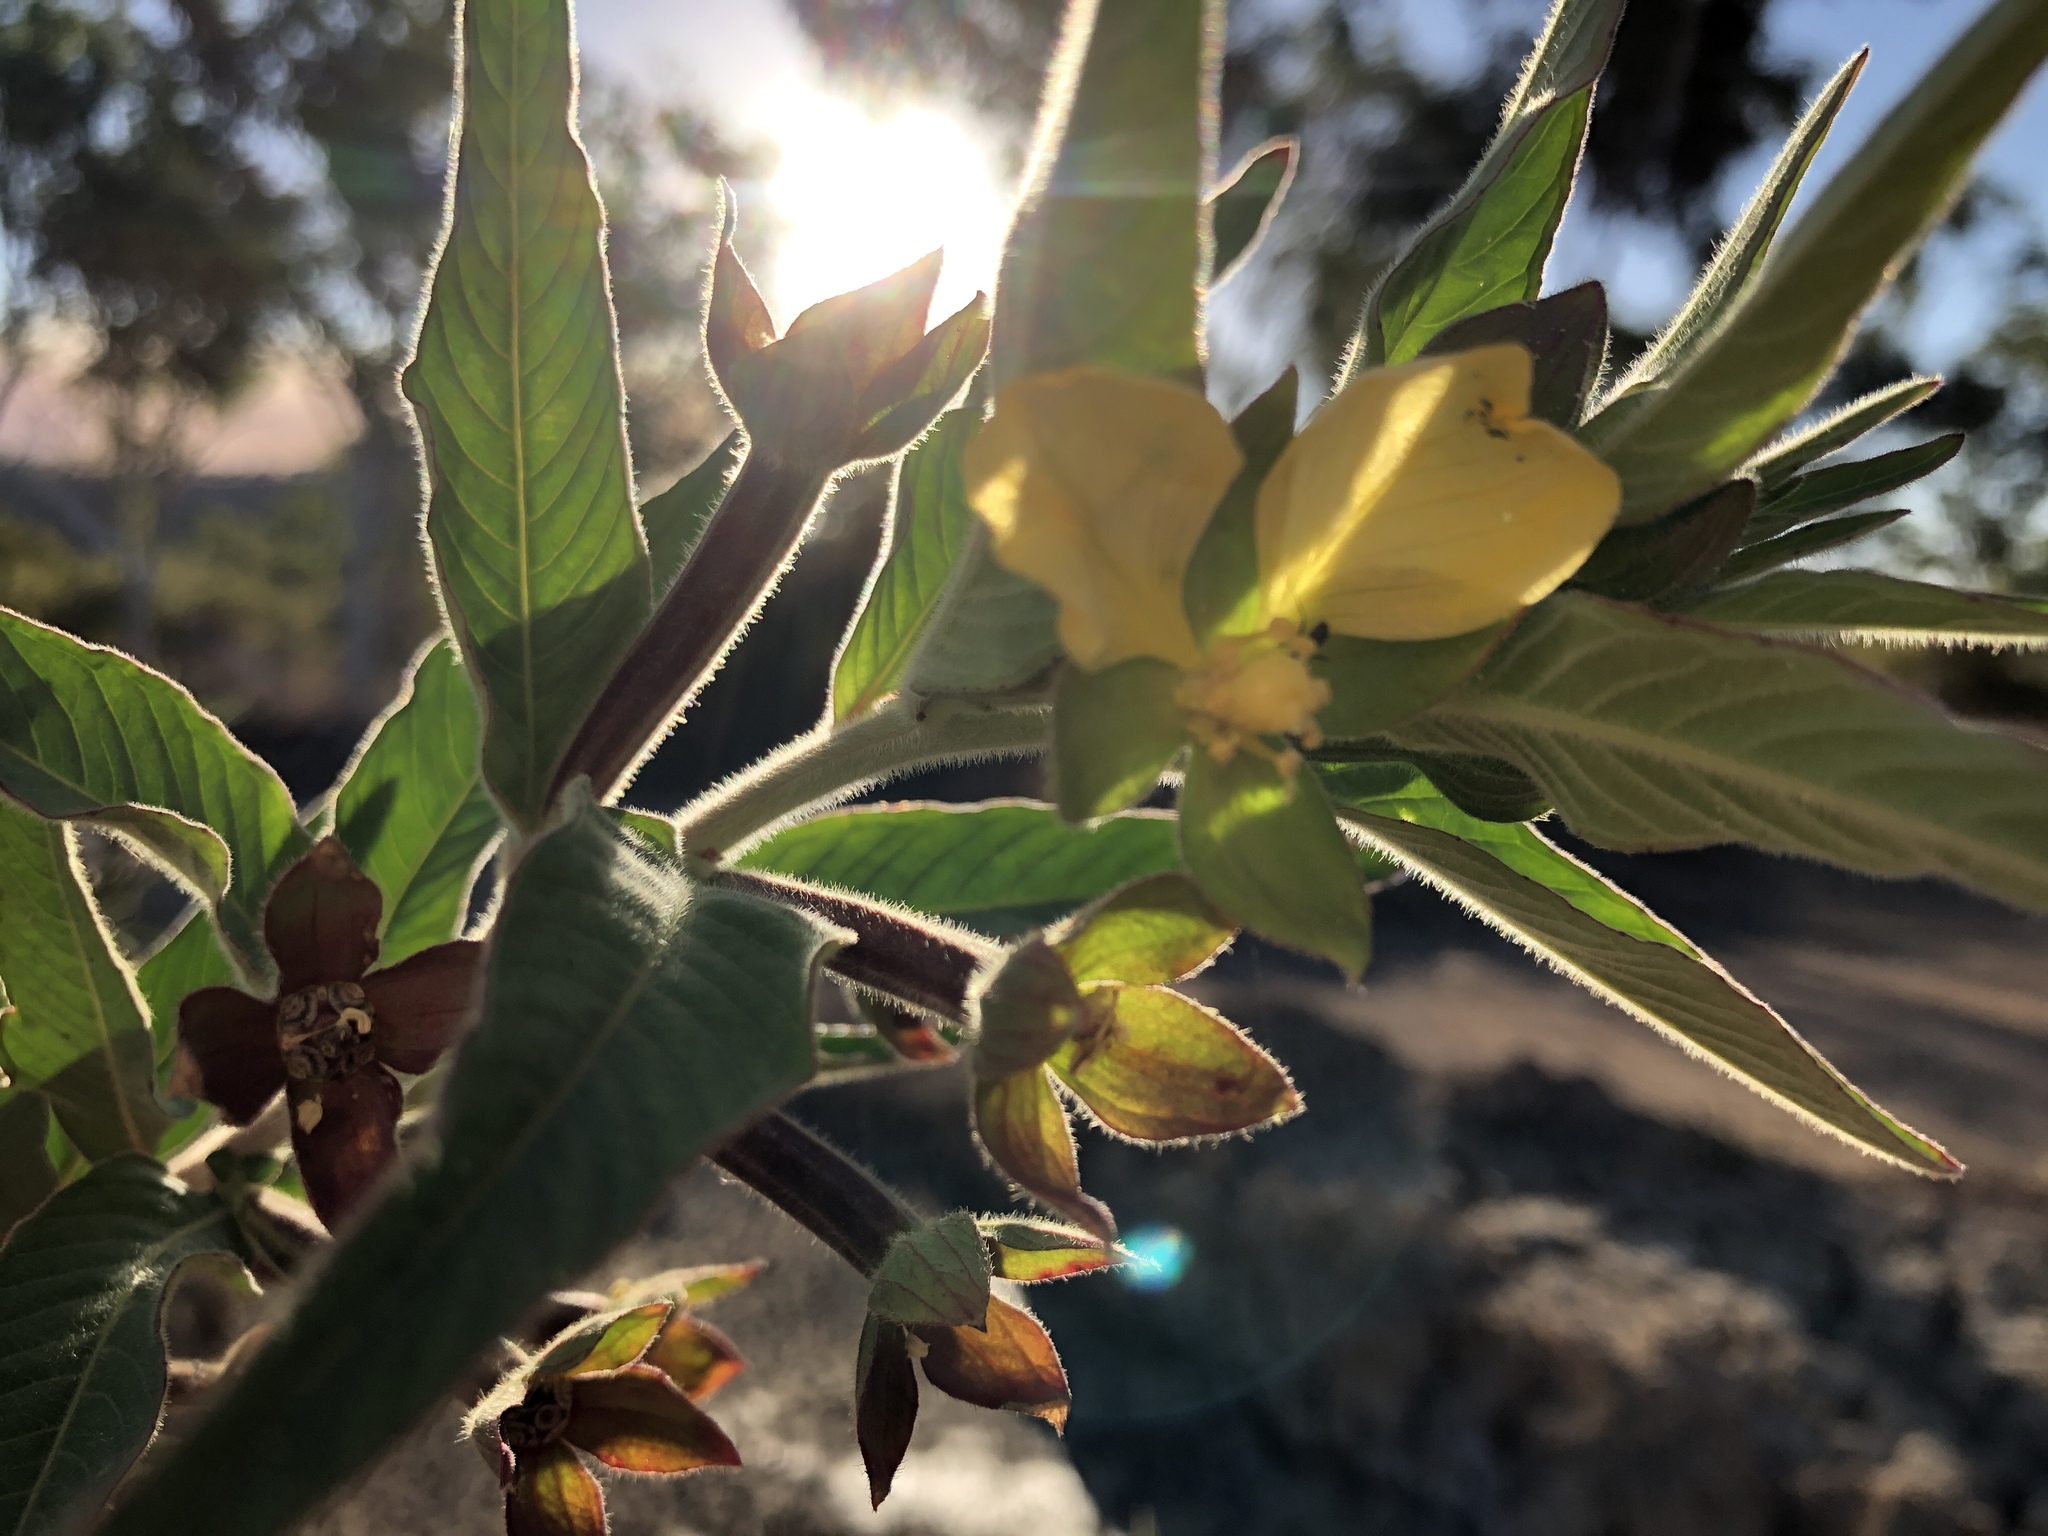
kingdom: Plantae
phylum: Tracheophyta
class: Magnoliopsida
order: Myrtales
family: Onagraceae
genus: Ludwigia
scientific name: Ludwigia octovalvis
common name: Water-primrose
